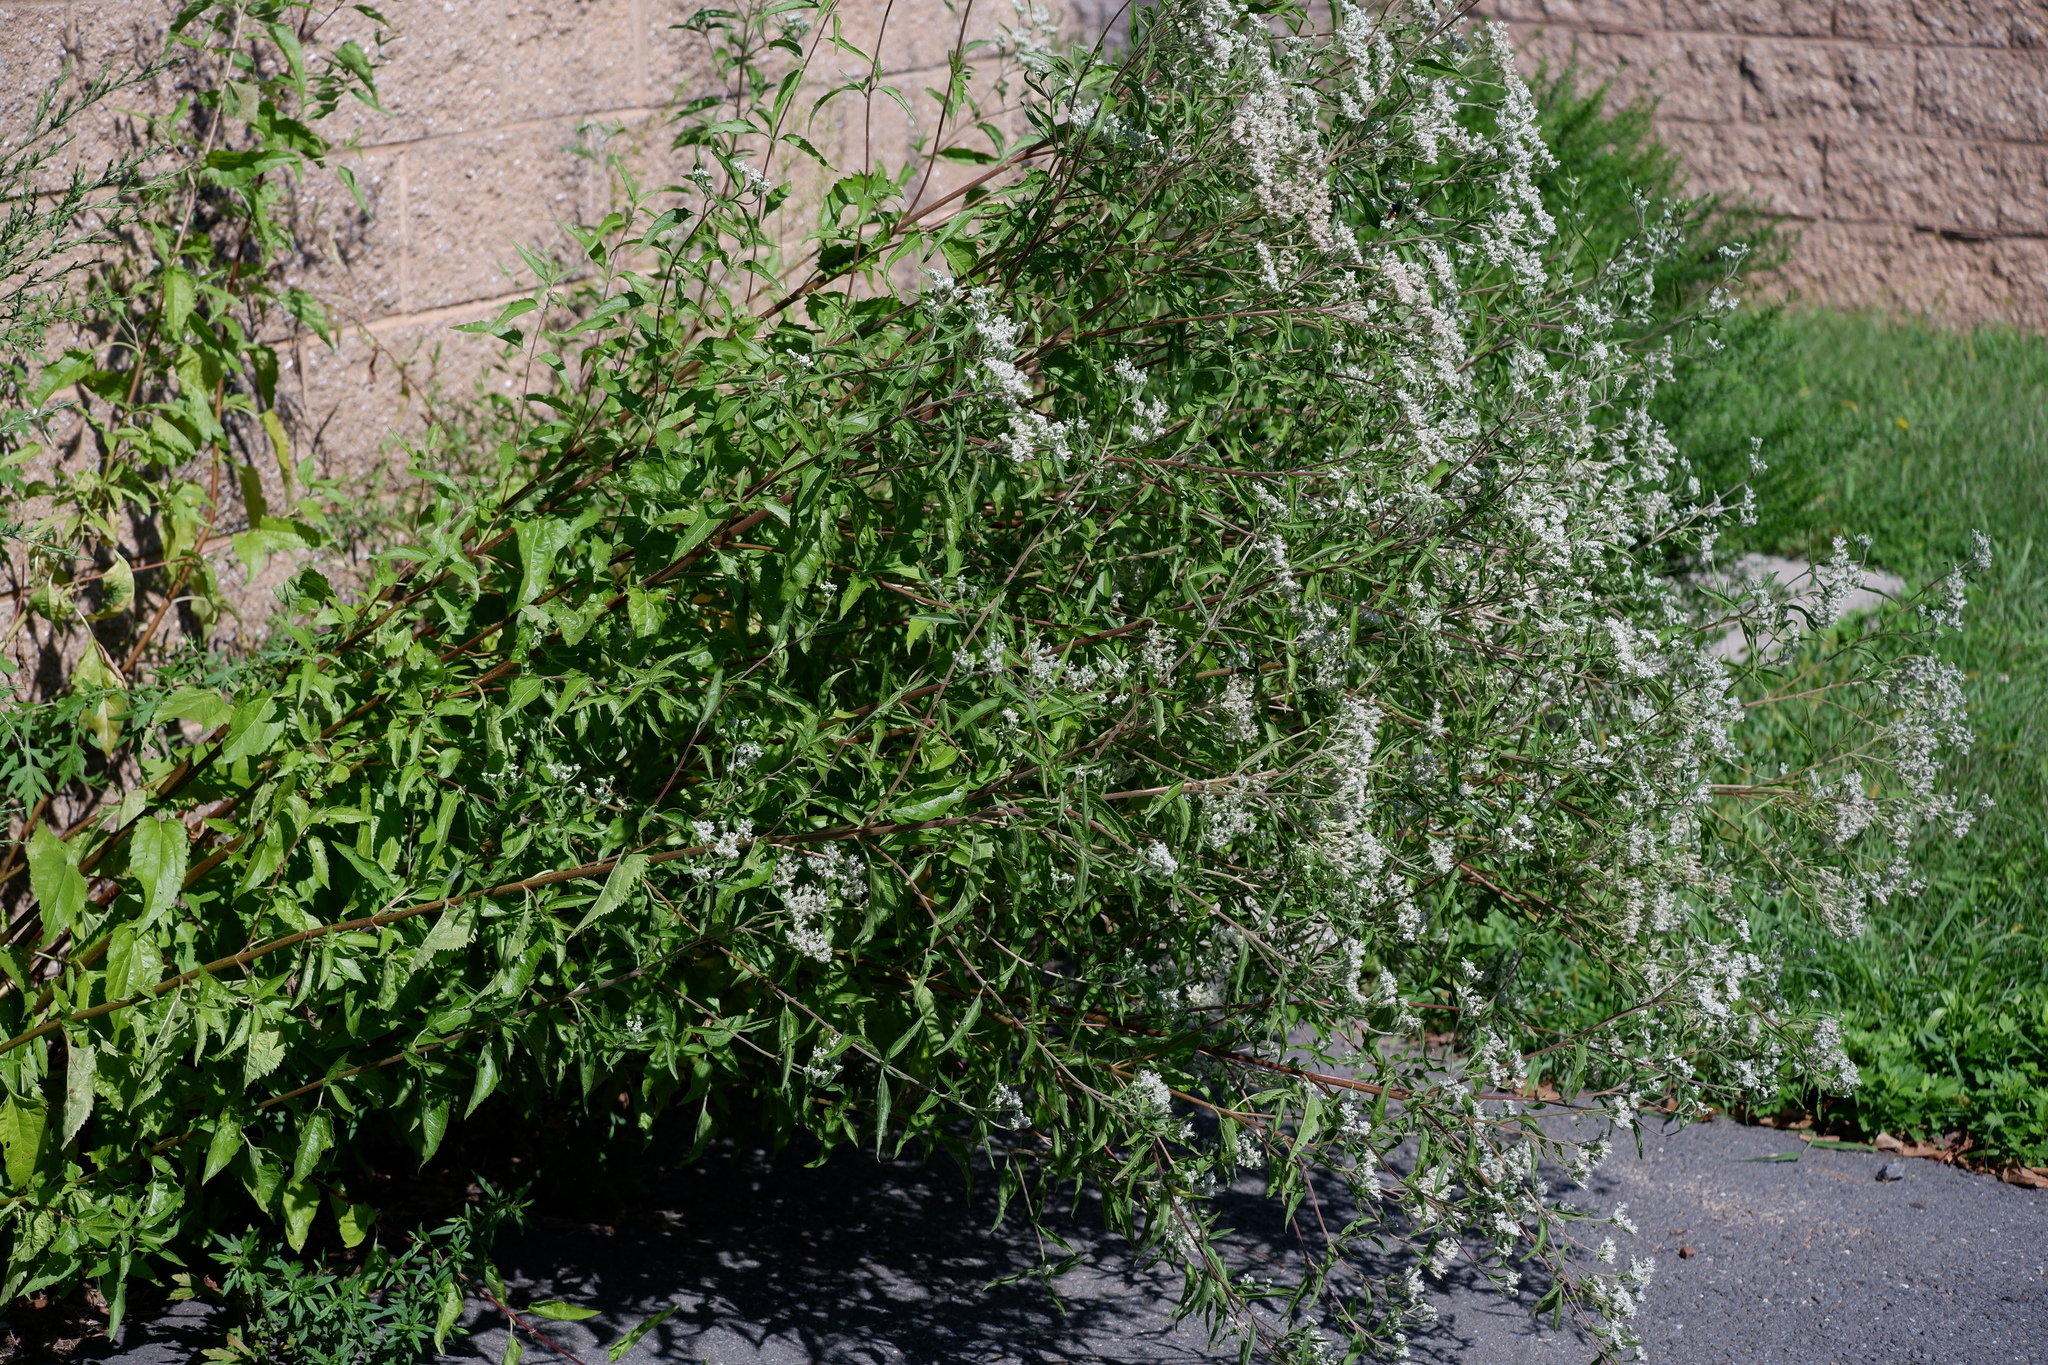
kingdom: Plantae
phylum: Tracheophyta
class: Magnoliopsida
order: Asterales
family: Asteraceae
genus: Eupatorium
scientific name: Eupatorium serotinum
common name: Late boneset
